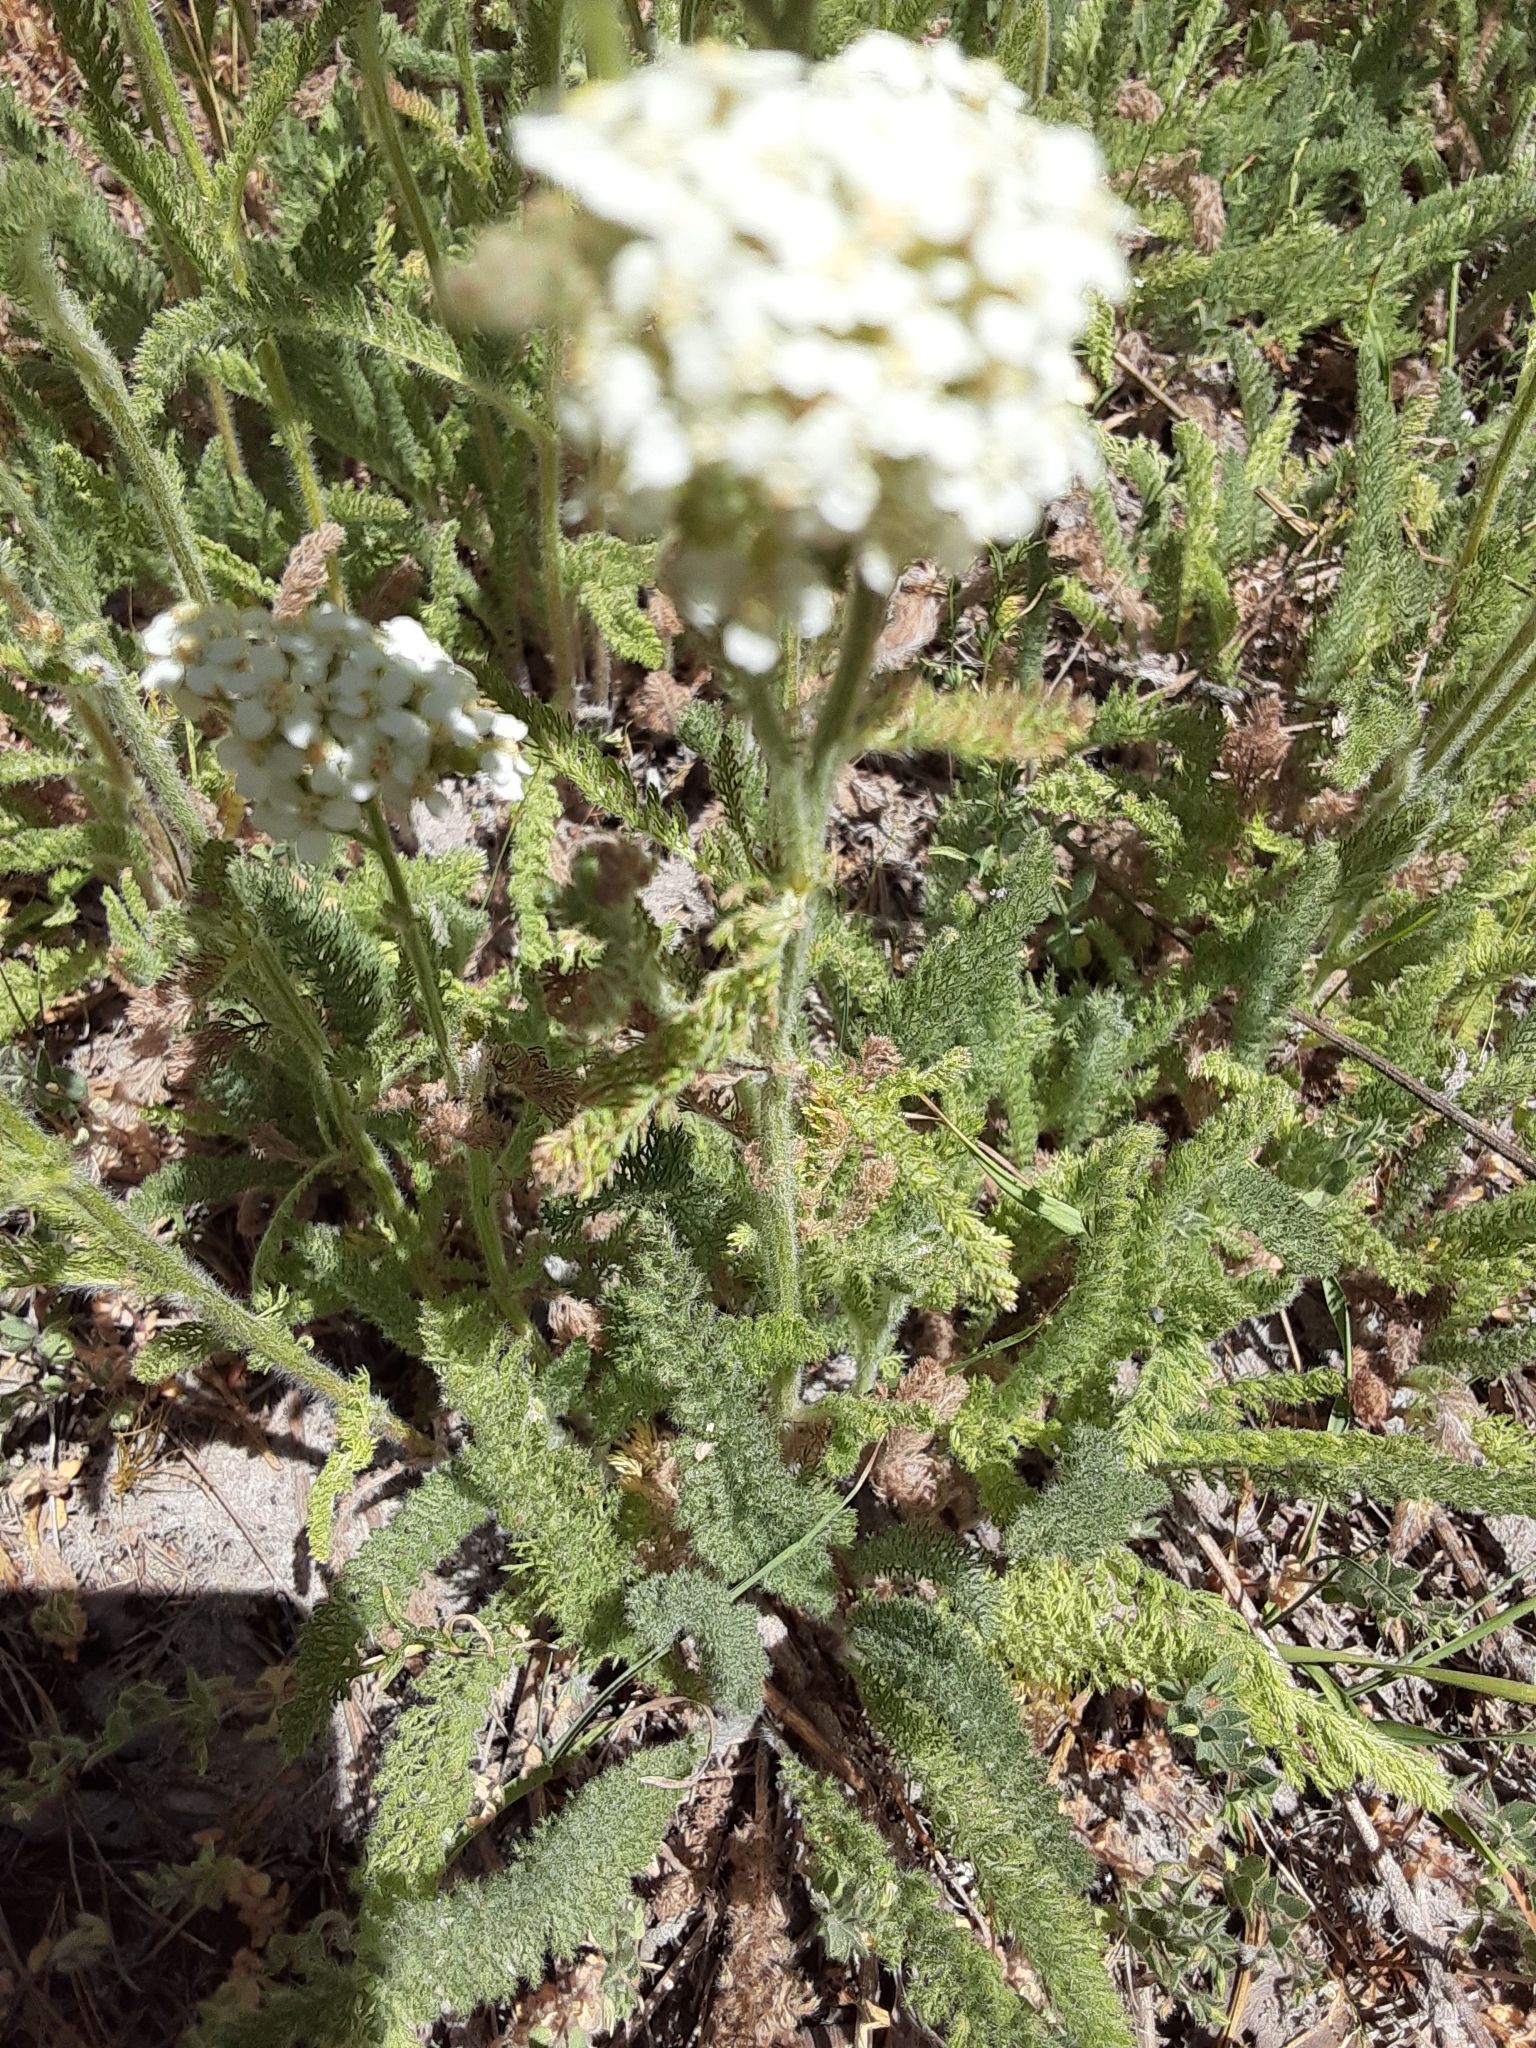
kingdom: Plantae
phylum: Tracheophyta
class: Magnoliopsida
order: Asterales
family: Asteraceae
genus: Achillea
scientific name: Achillea millefolium
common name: Yarrow
